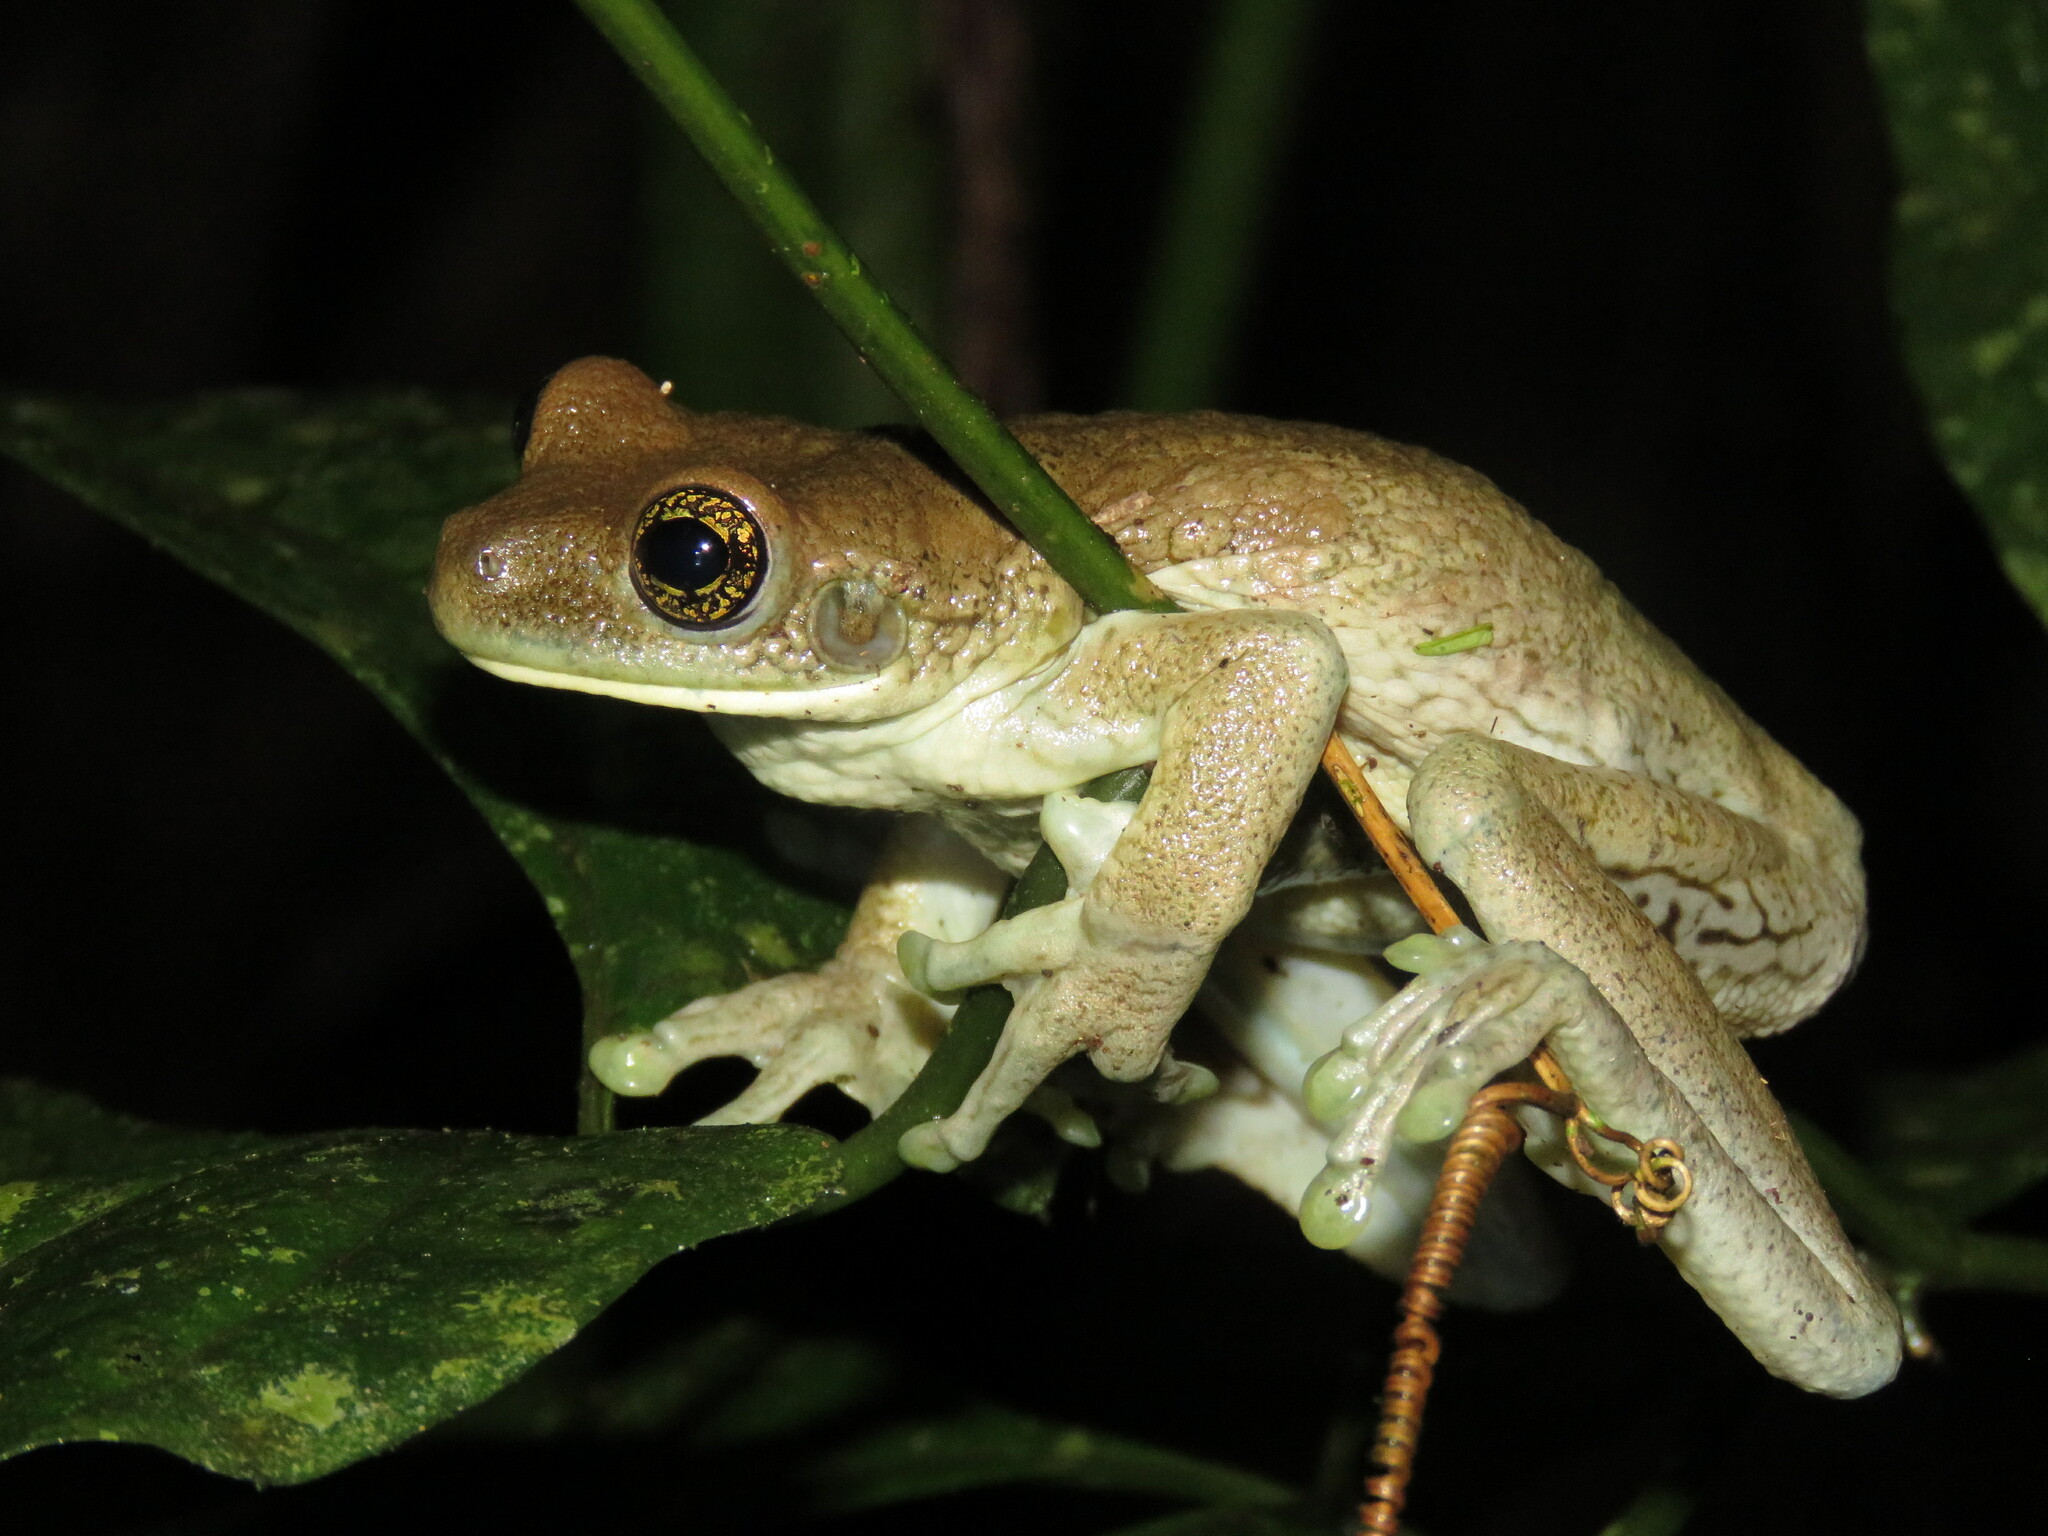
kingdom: Animalia
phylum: Chordata
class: Amphibia
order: Anura
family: Hylidae
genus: Trachycephalus
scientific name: Trachycephalus typhonius
